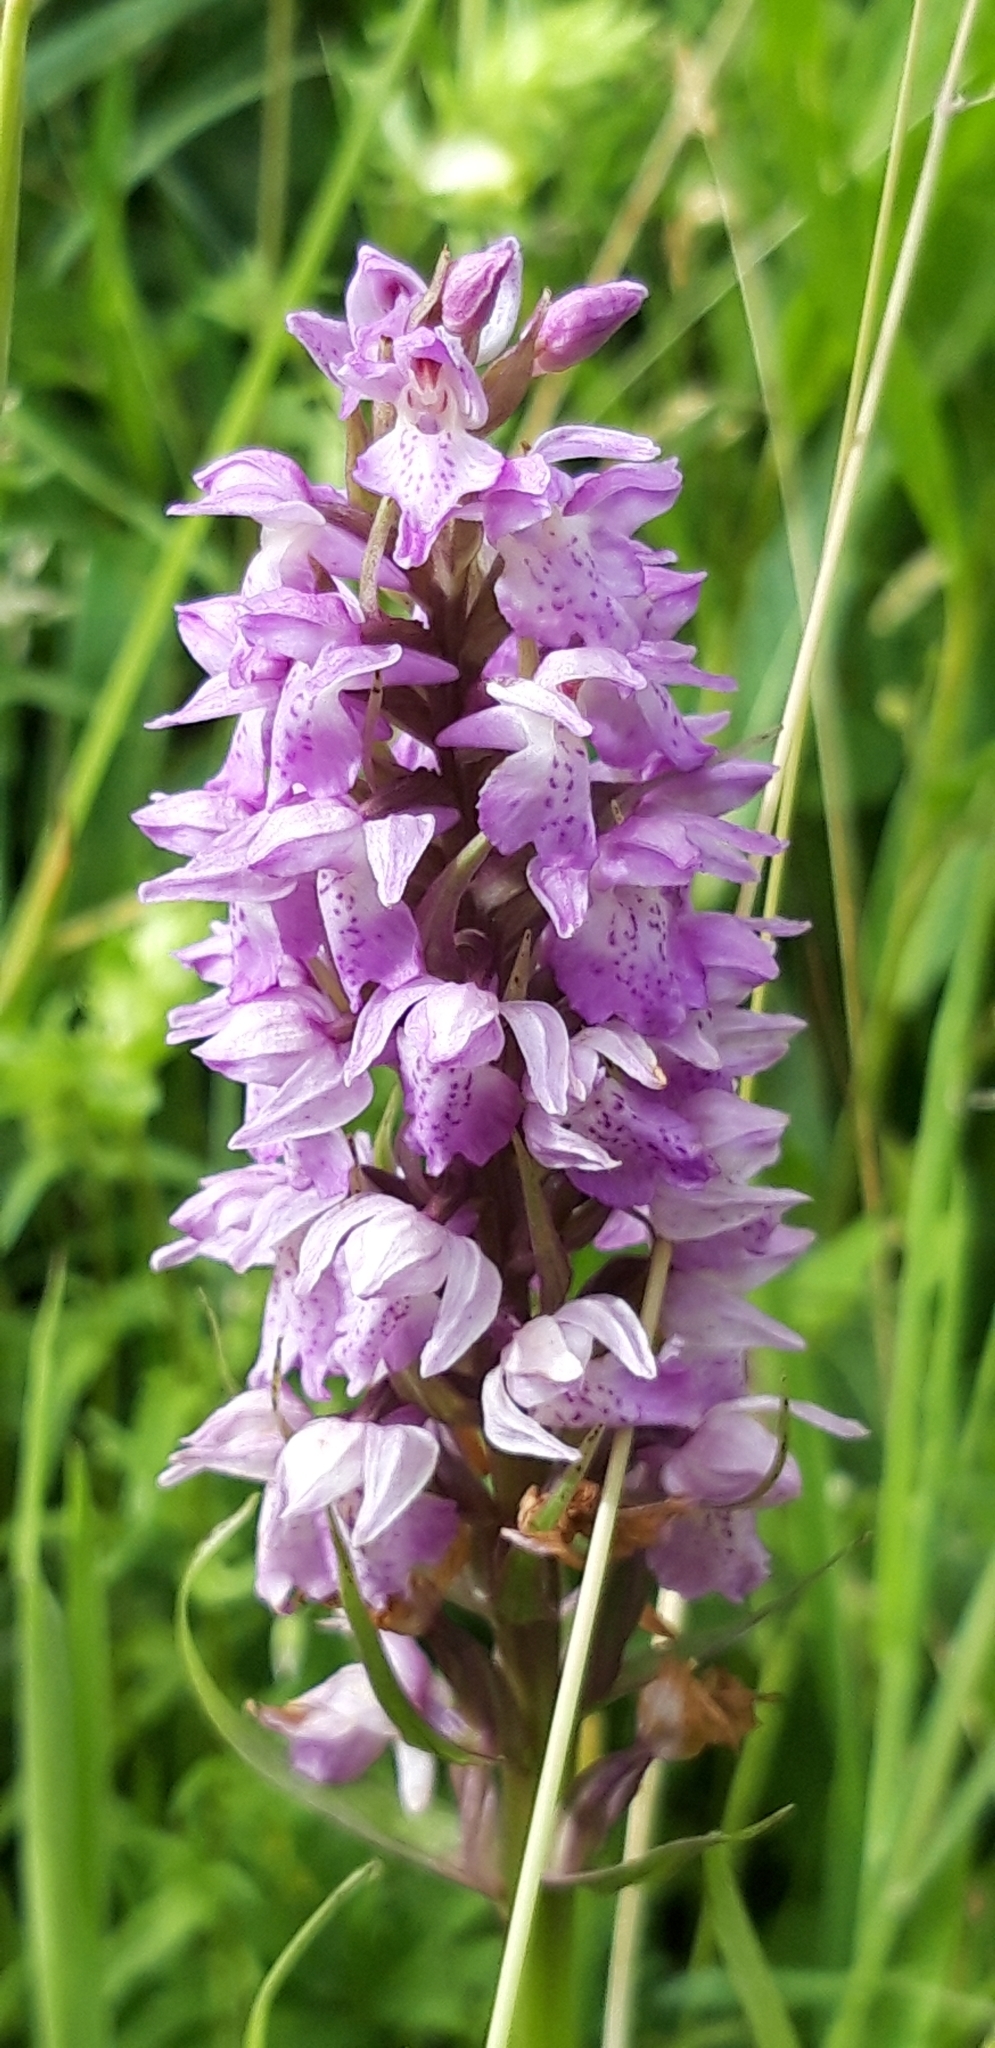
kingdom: Plantae
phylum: Tracheophyta
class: Liliopsida
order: Asparagales
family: Orchidaceae
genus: Dactylorhiza
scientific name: Dactylorhiza majalis
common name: Marsh orchid
